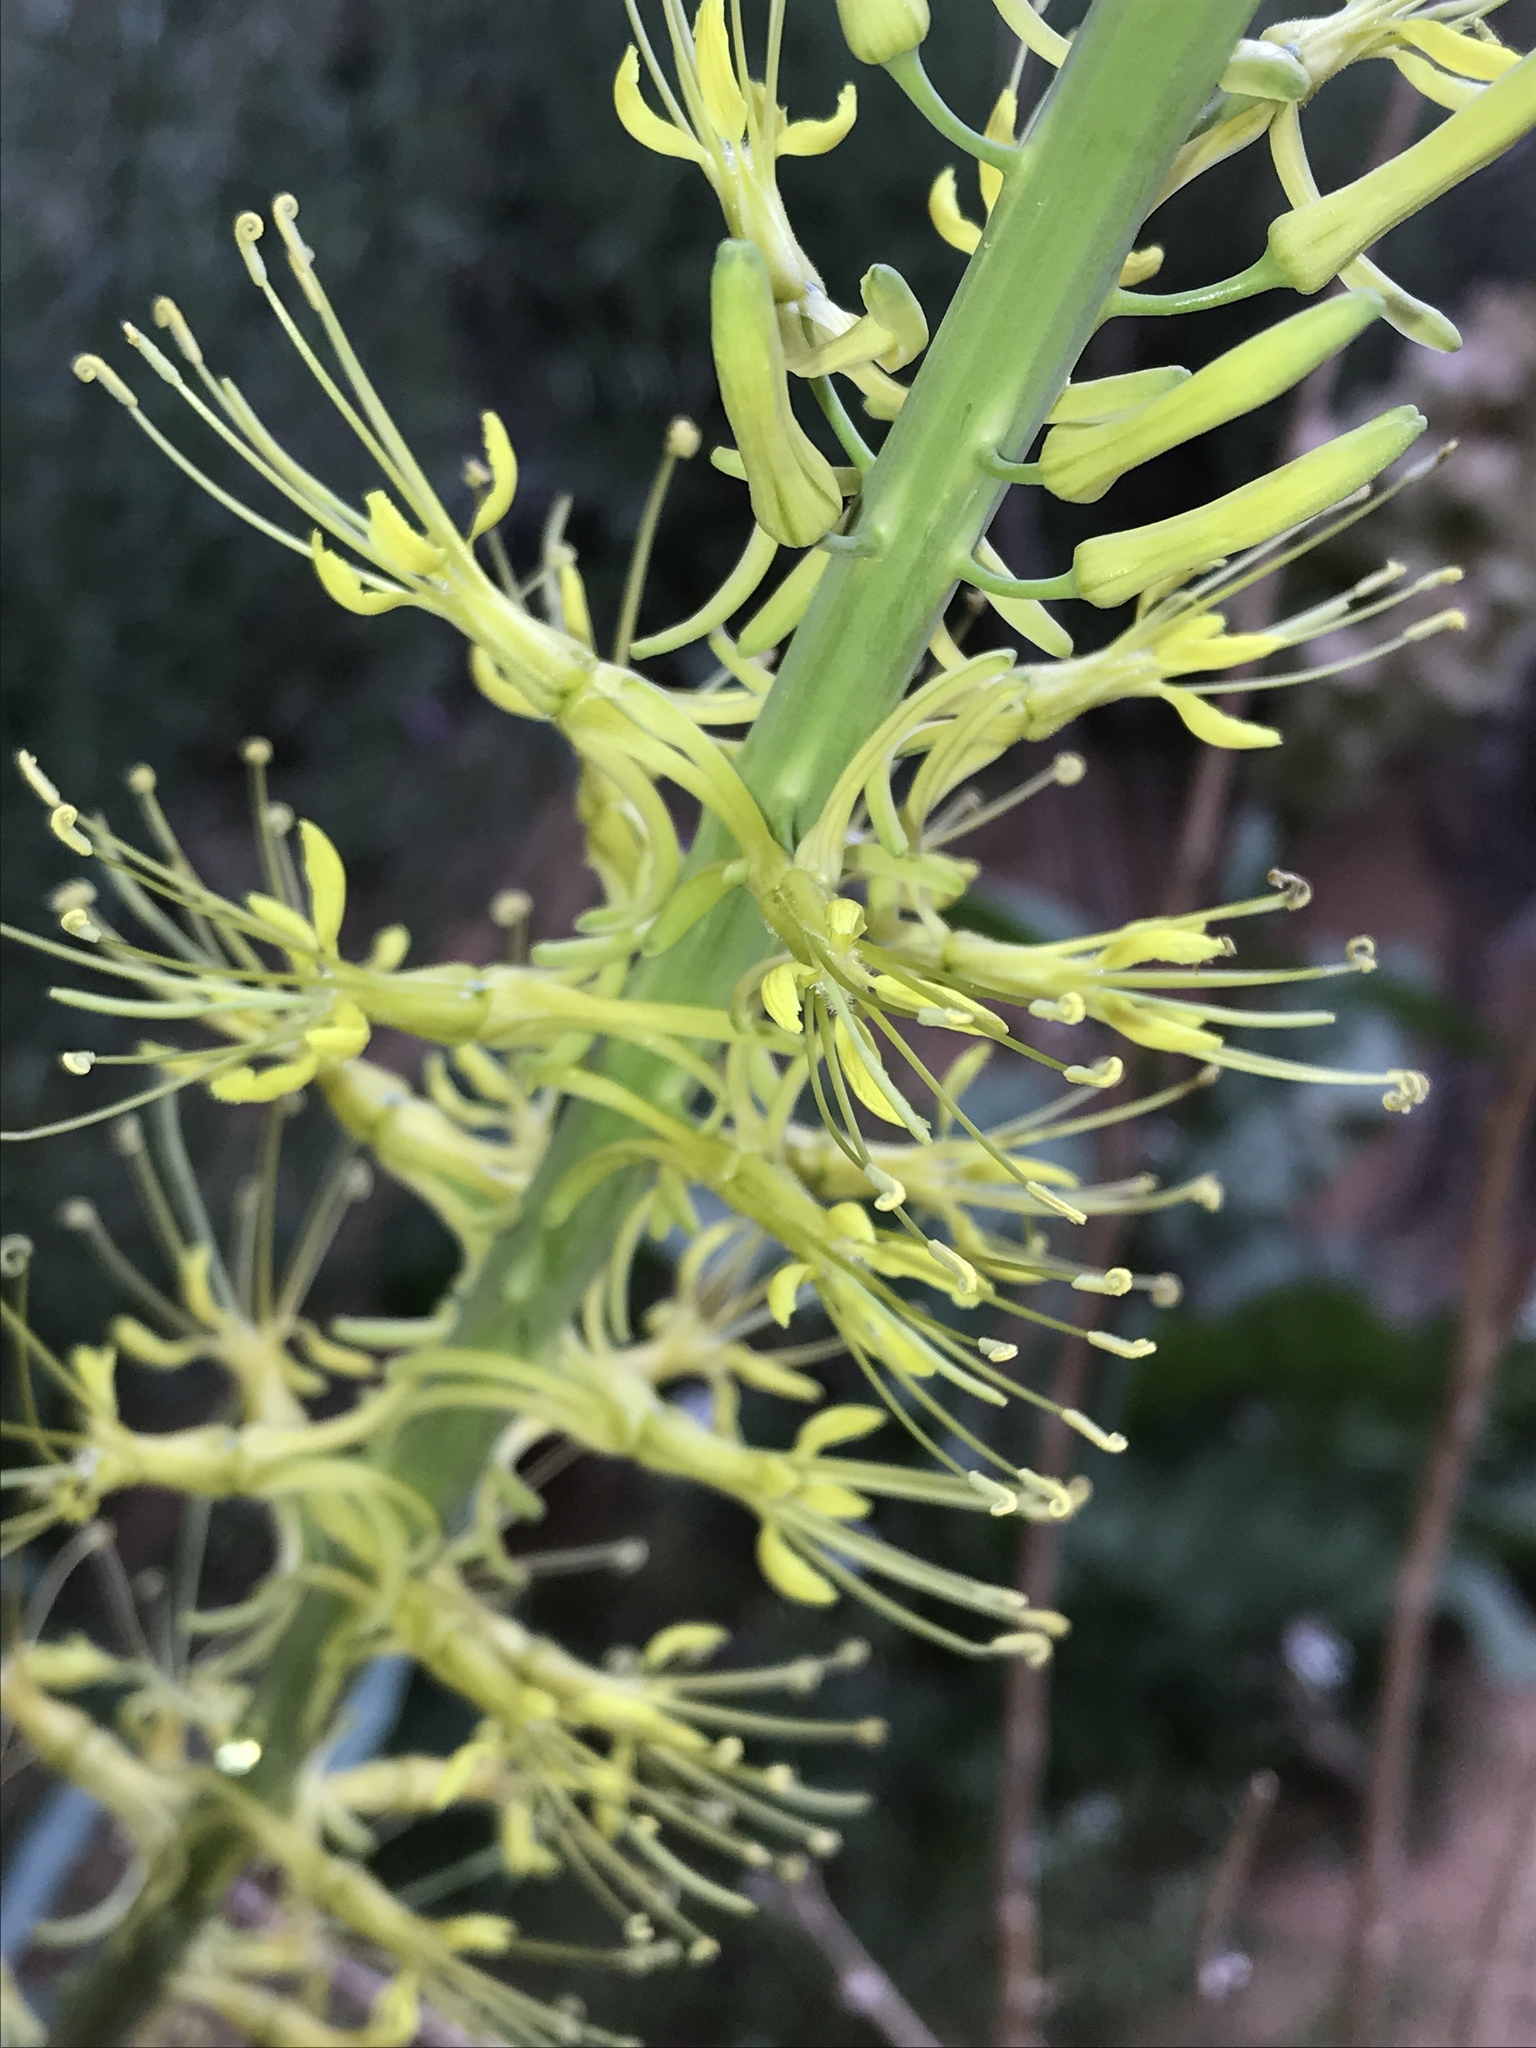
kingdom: Plantae
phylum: Tracheophyta
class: Magnoliopsida
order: Brassicales
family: Brassicaceae
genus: Stanleya
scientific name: Stanleya pinnata
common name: Prince's-plume
